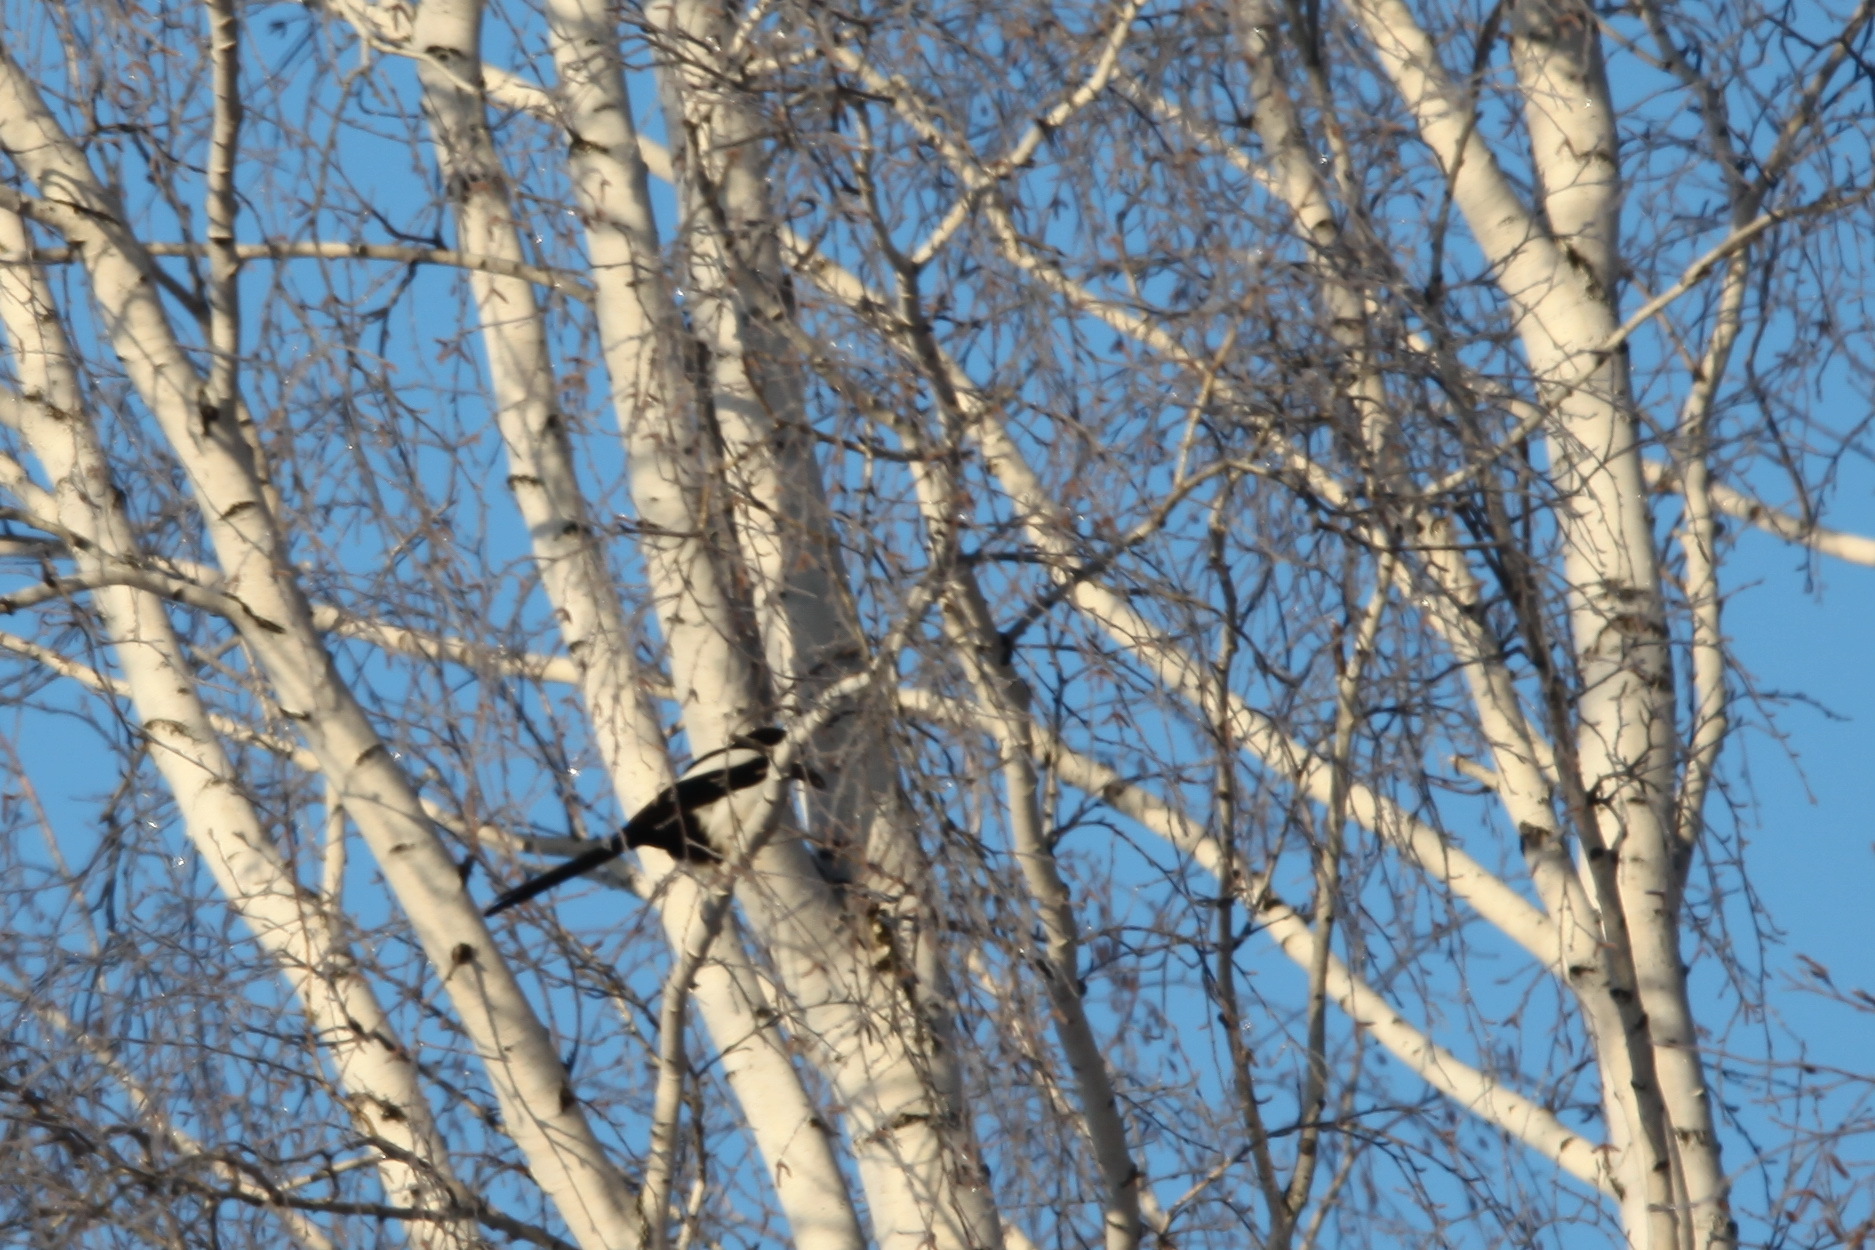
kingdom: Animalia
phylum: Chordata
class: Aves
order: Passeriformes
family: Corvidae
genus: Pica
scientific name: Pica pica
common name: Eurasian magpie
